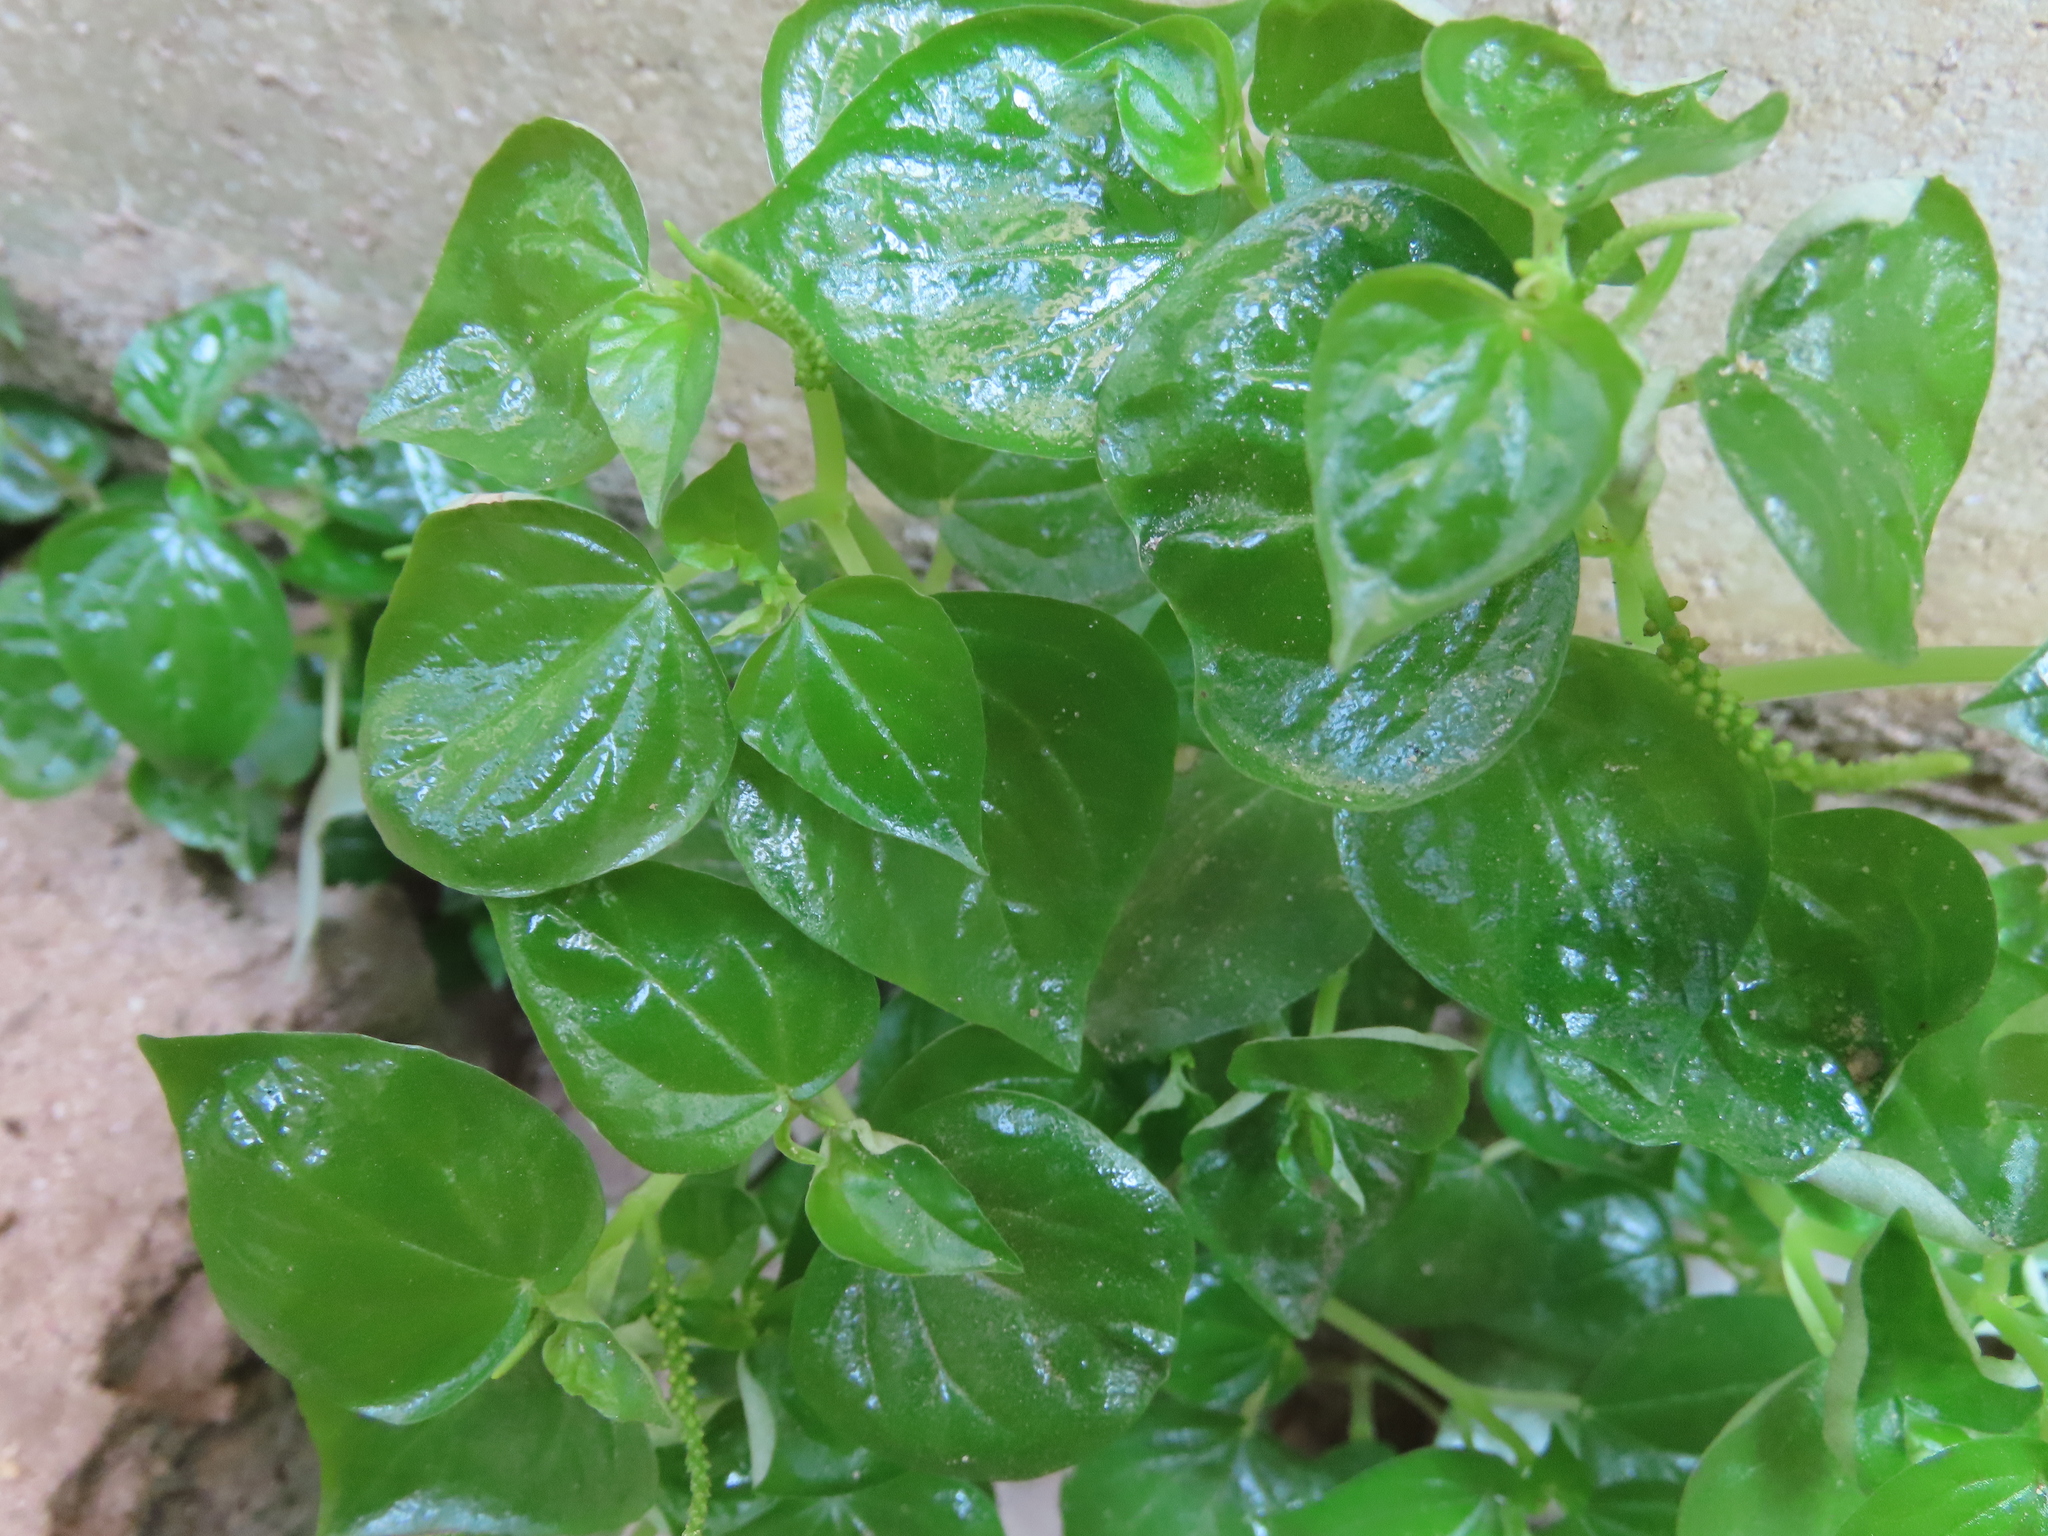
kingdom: Plantae
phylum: Tracheophyta
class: Magnoliopsida
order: Piperales
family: Piperaceae
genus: Peperomia
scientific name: Peperomia pellucida
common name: Man to man
